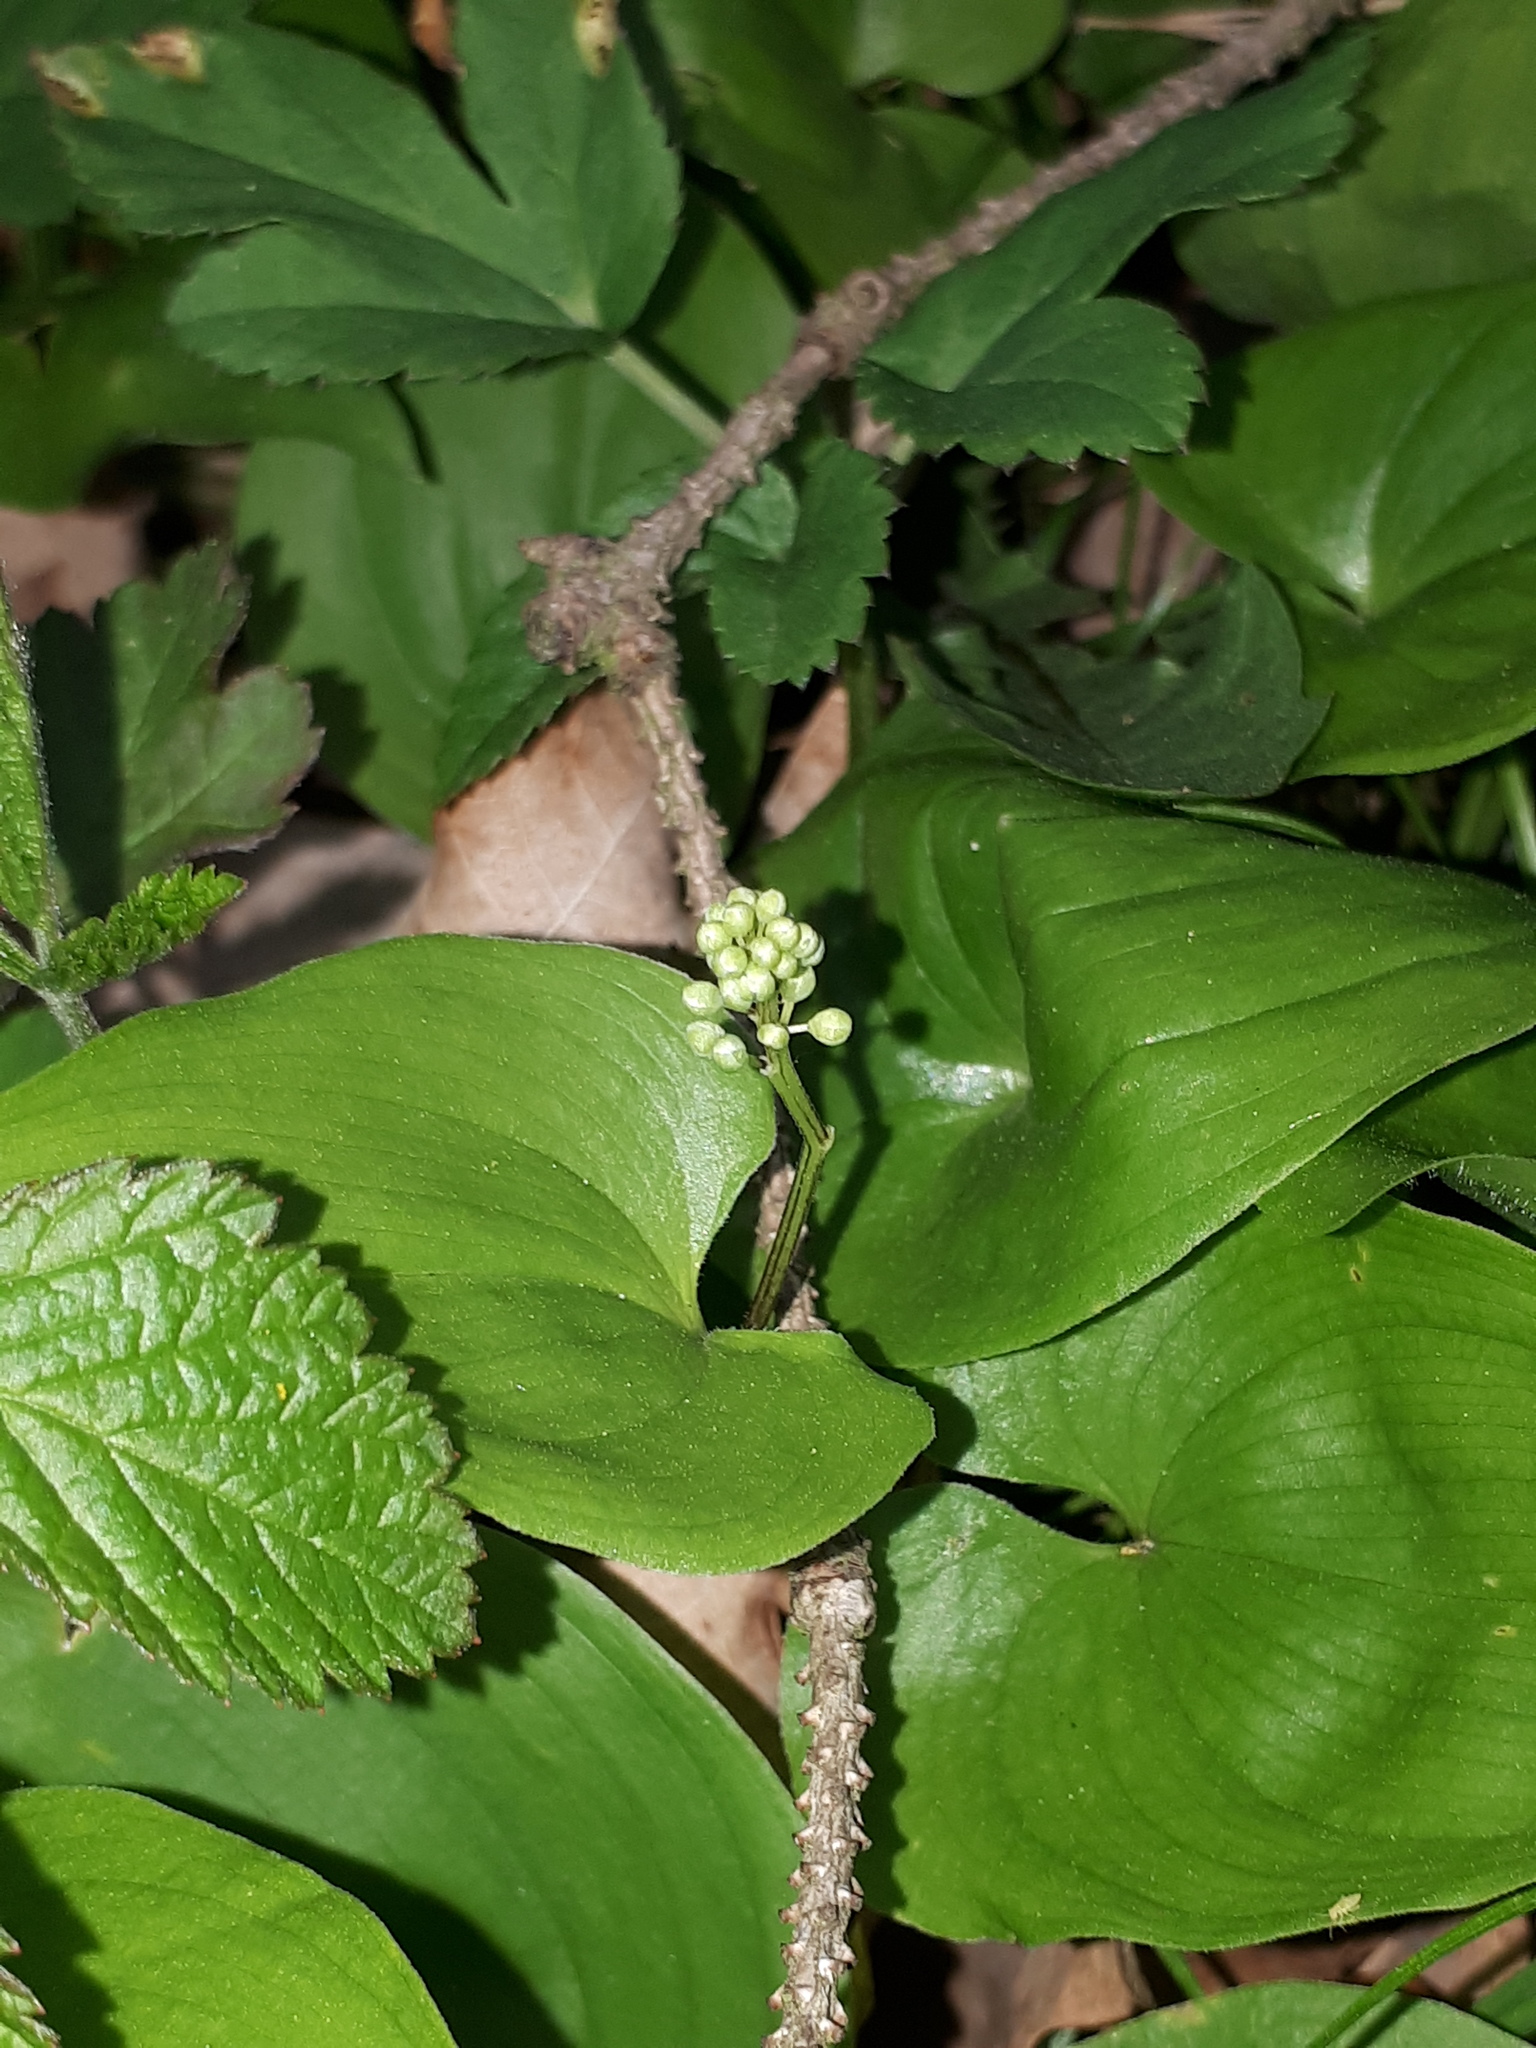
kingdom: Plantae
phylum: Tracheophyta
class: Liliopsida
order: Asparagales
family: Asparagaceae
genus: Maianthemum
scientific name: Maianthemum bifolium
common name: May lily
